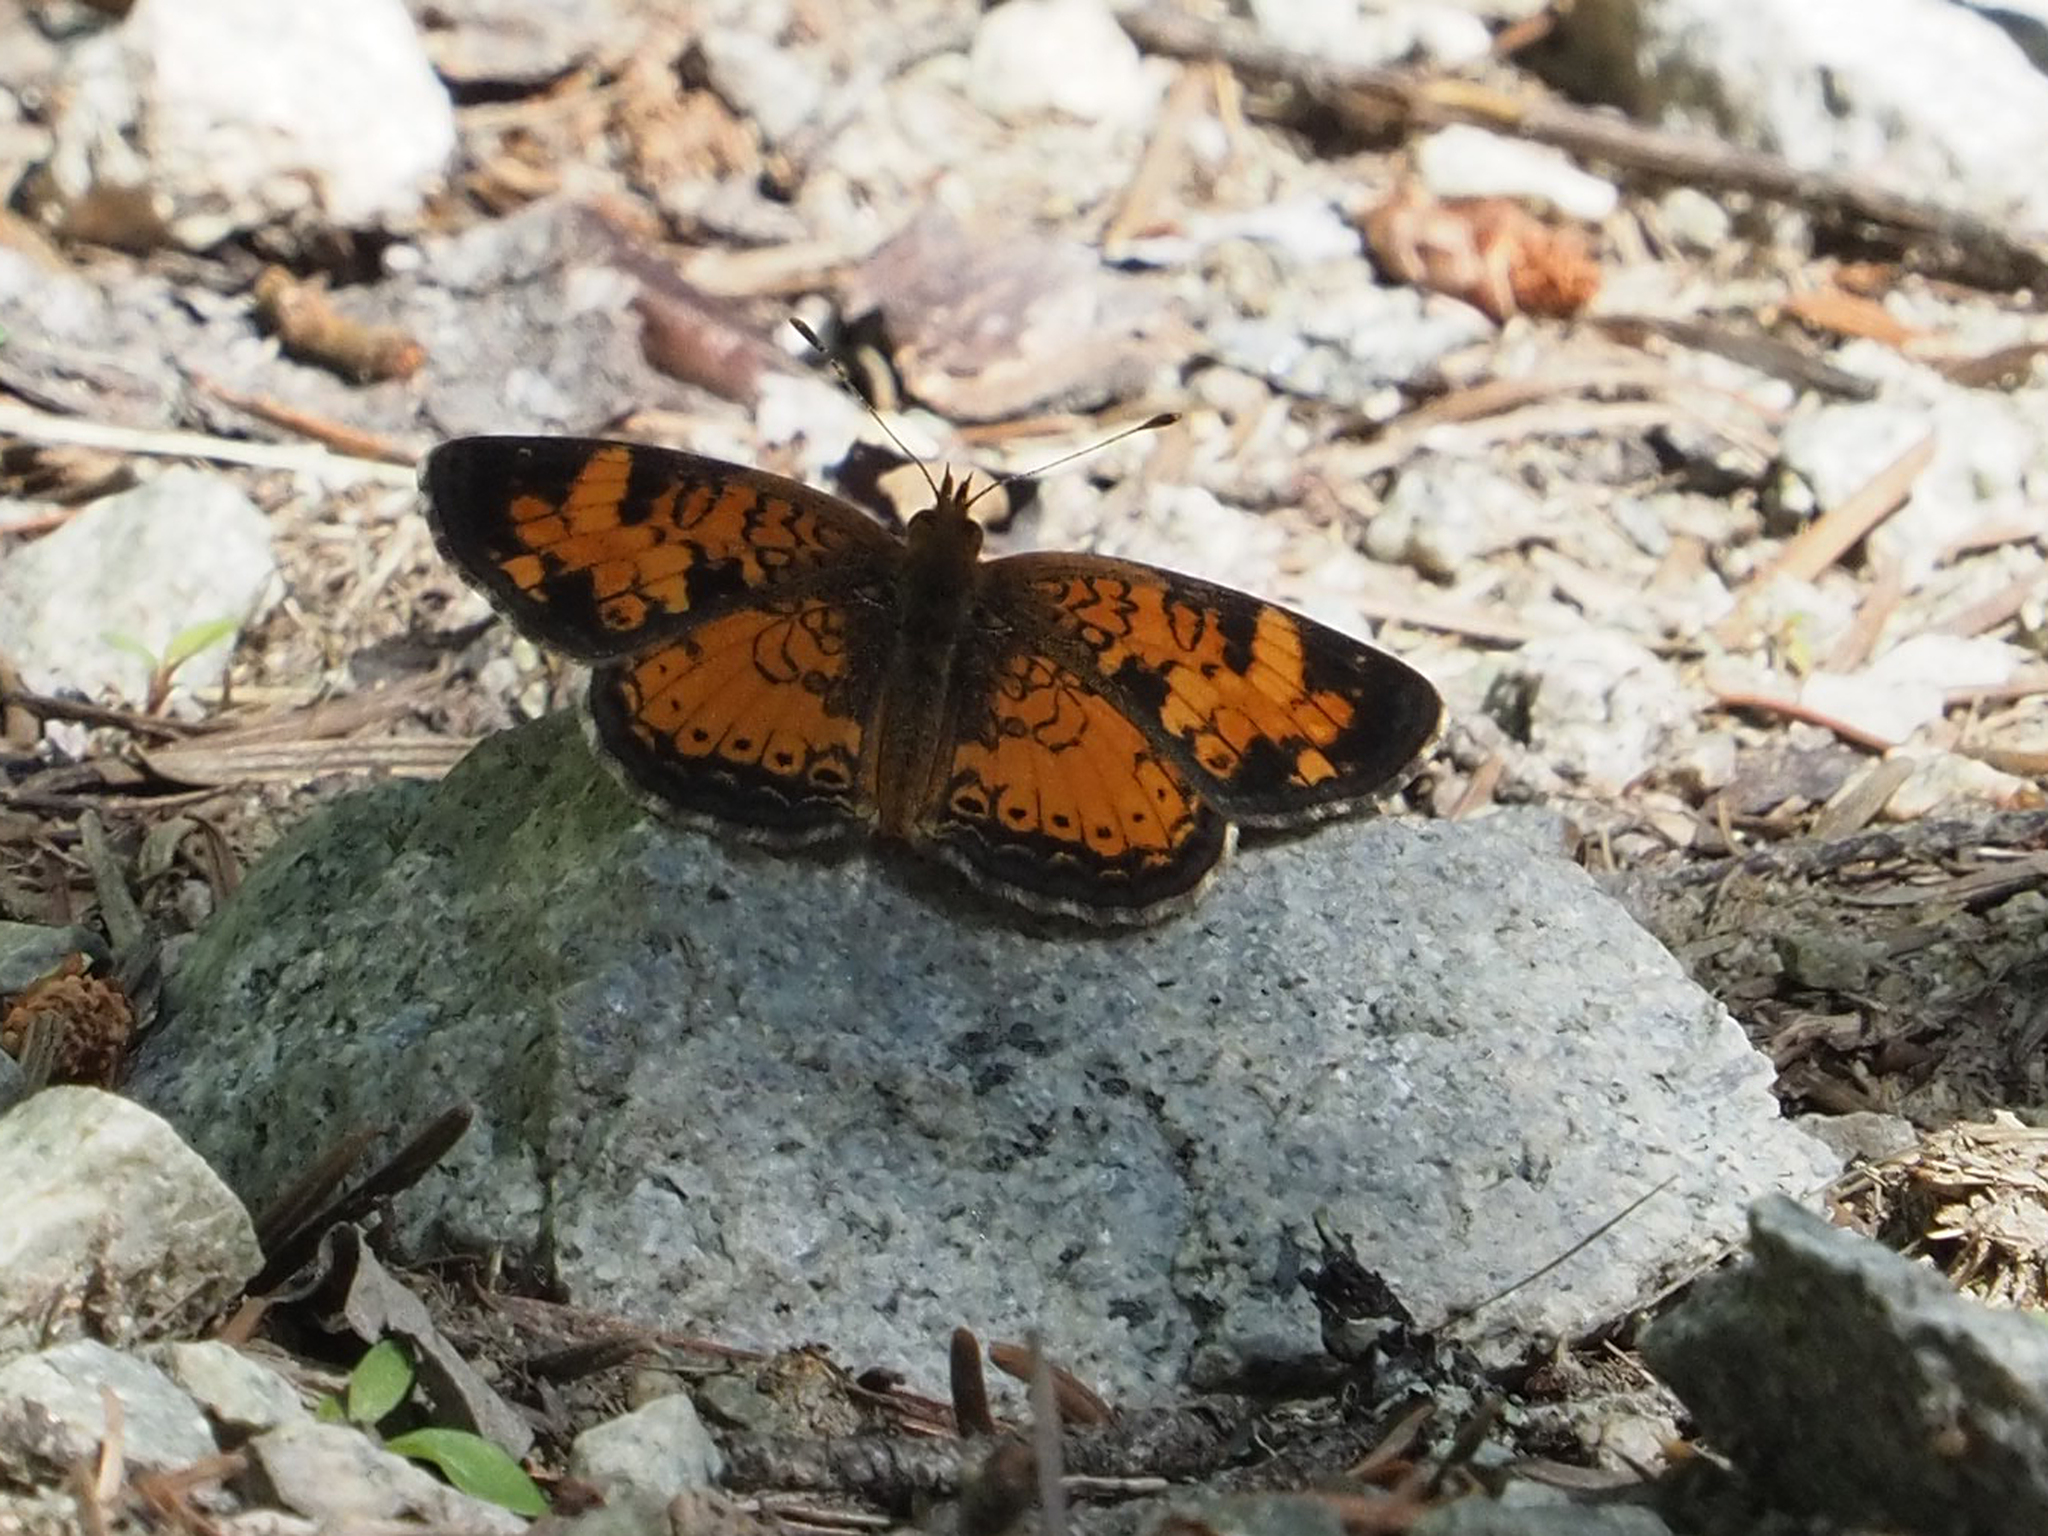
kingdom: Animalia
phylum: Arthropoda
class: Insecta
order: Lepidoptera
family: Nymphalidae
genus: Phyciodes
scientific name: Phyciodes tharos
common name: Pearl crescent
